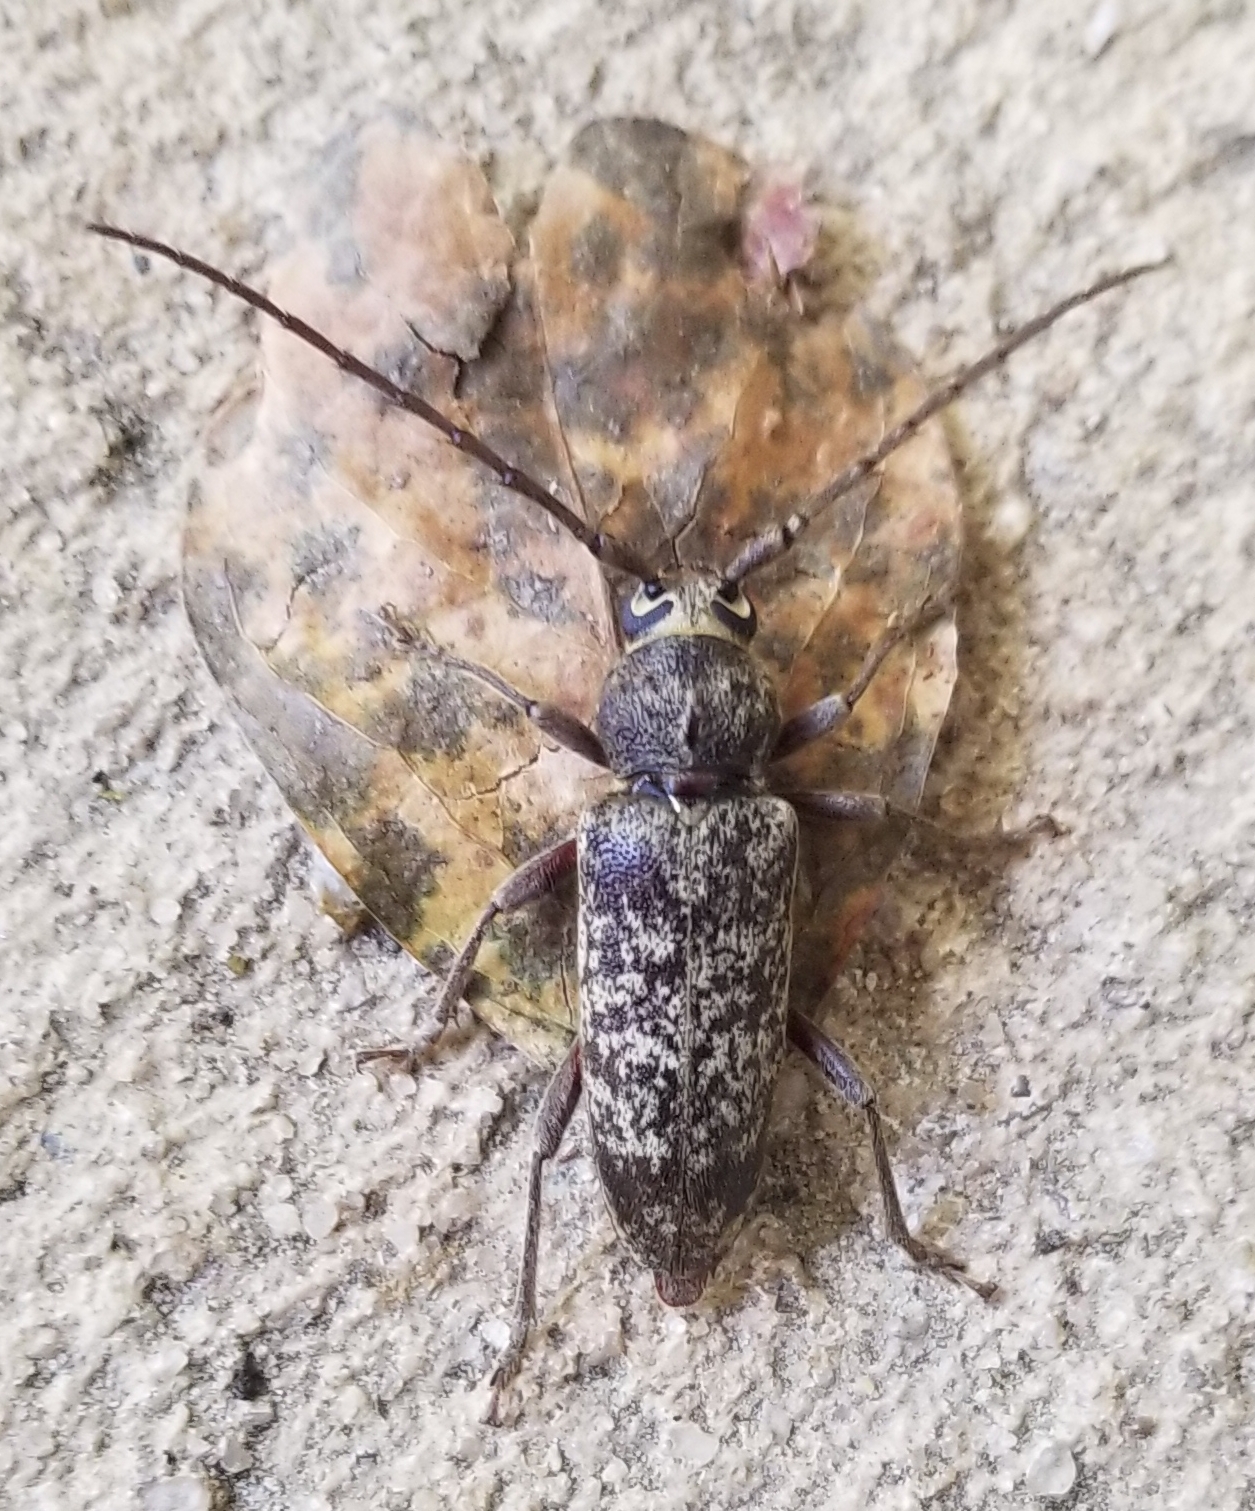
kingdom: Animalia
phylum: Arthropoda
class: Insecta
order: Coleoptera
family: Cerambycidae
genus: Enaphalodes
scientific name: Enaphalodes atomarius
